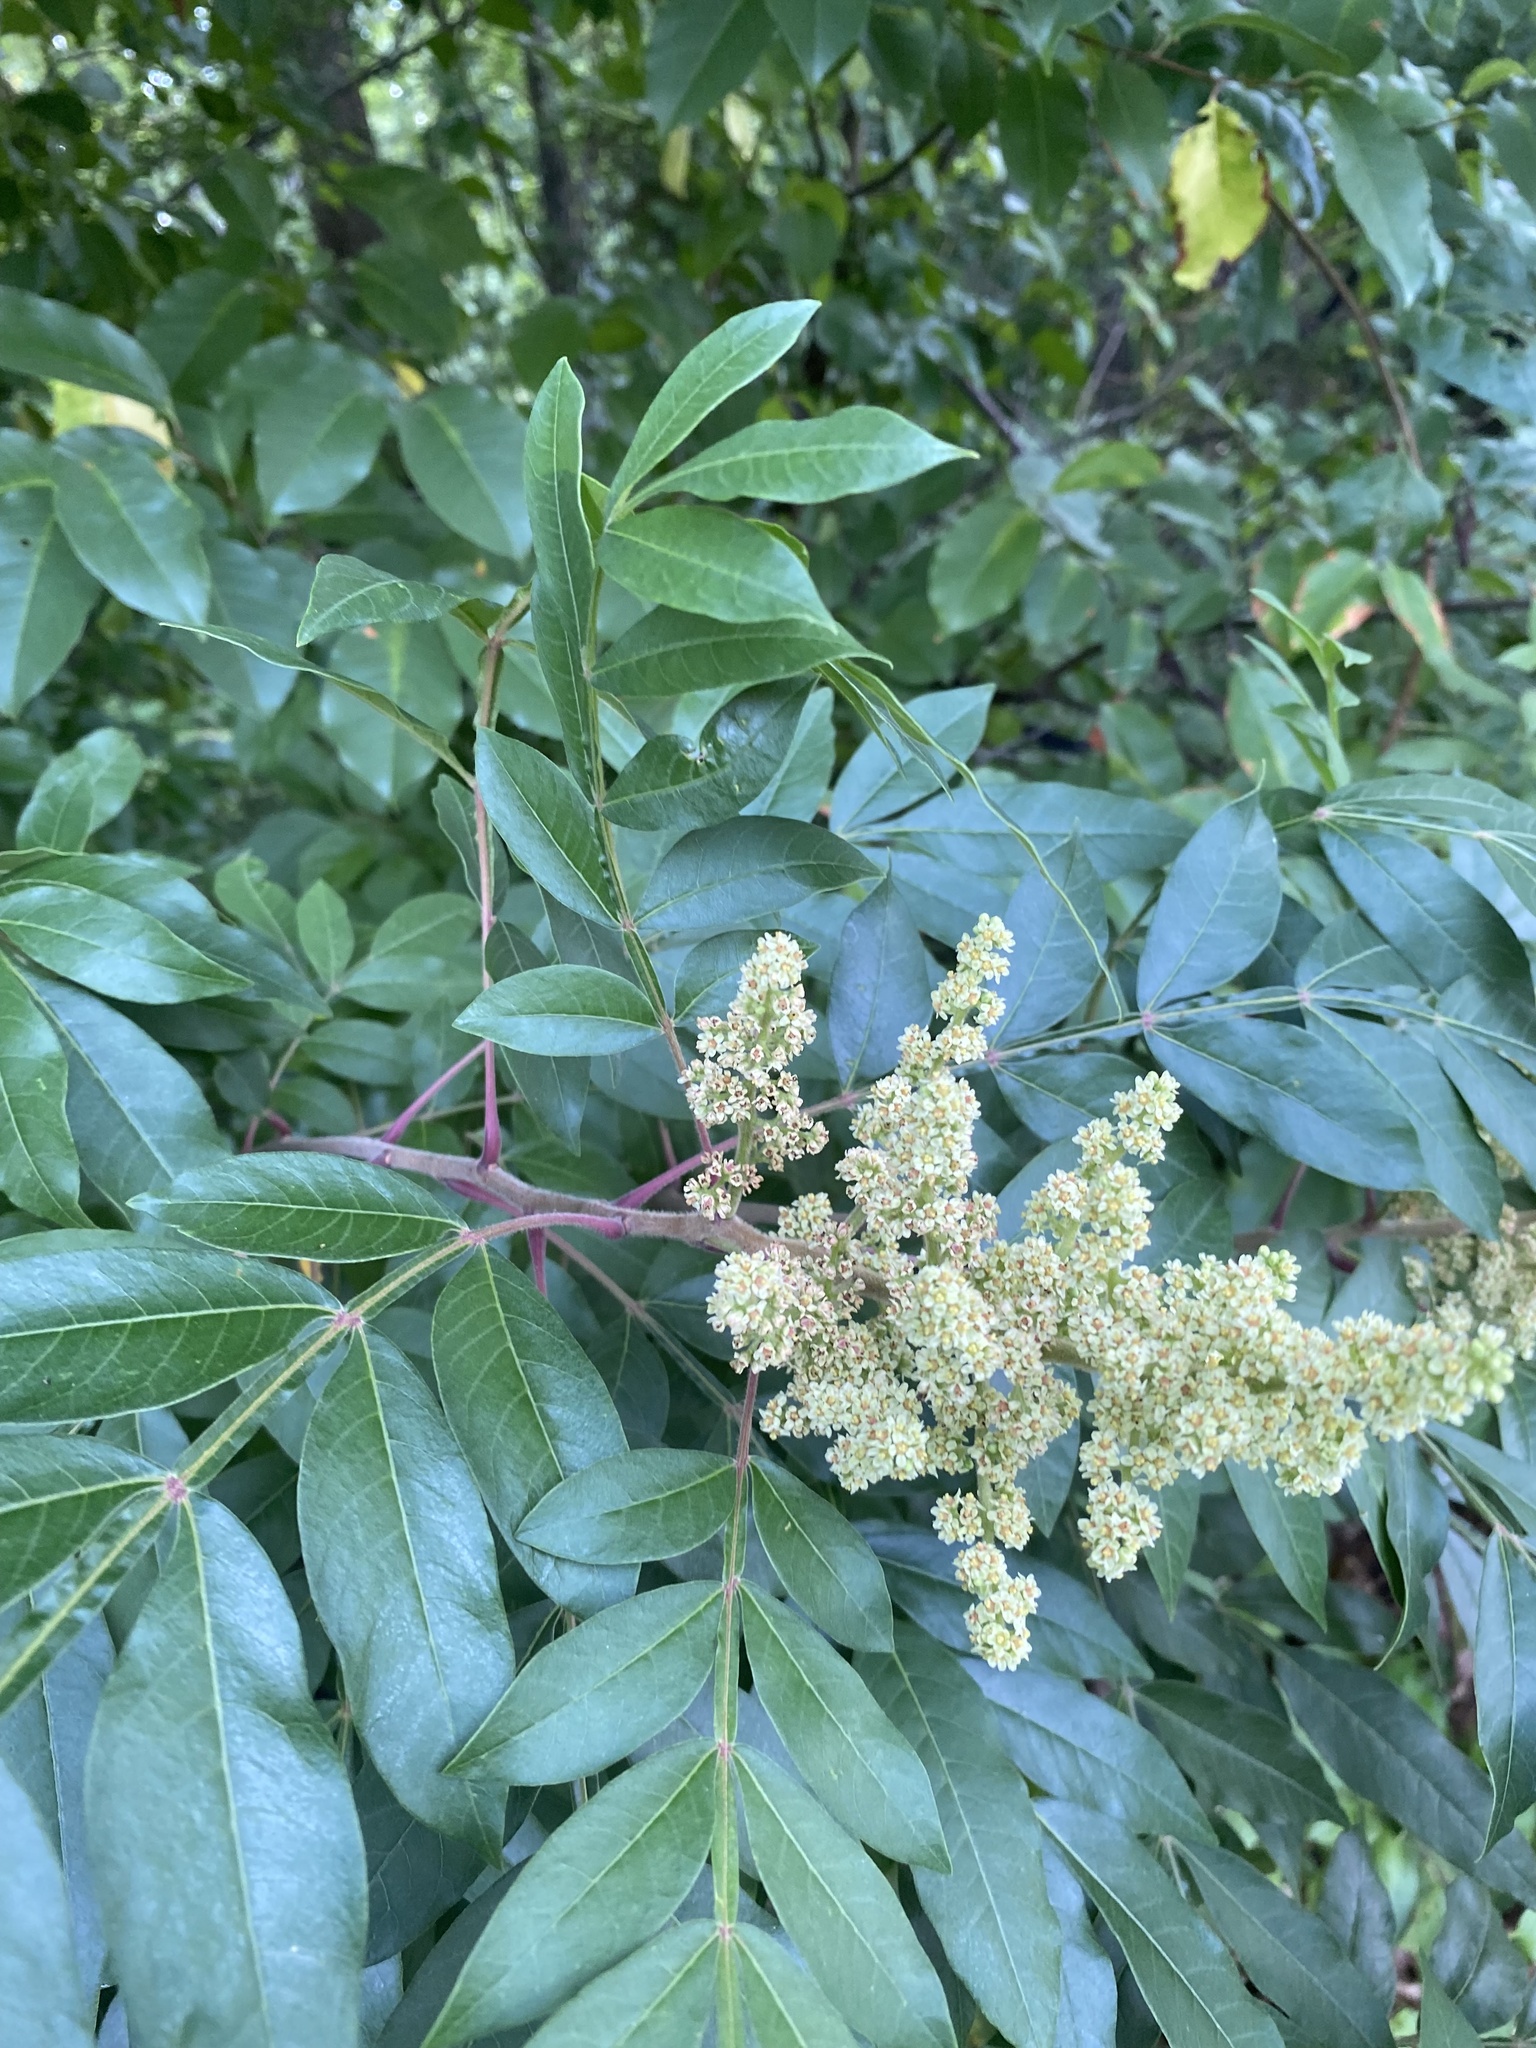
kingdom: Plantae
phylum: Tracheophyta
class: Magnoliopsida
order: Sapindales
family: Anacardiaceae
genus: Rhus
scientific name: Rhus copallina
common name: Shining sumac
